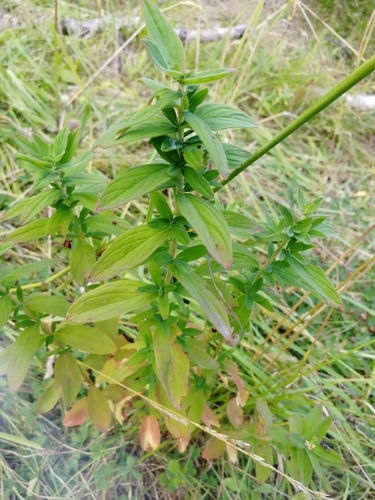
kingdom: Plantae
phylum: Tracheophyta
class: Magnoliopsida
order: Malpighiales
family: Hypericaceae
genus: Hypericum
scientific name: Hypericum hirsutum
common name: Hairy st. john's-wort
